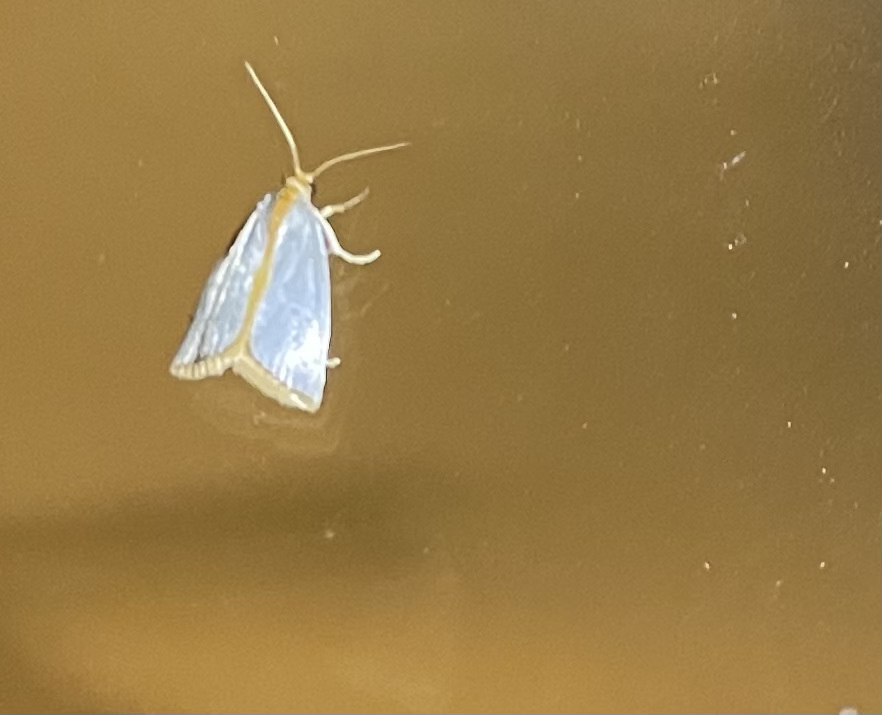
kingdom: Animalia
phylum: Arthropoda
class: Insecta
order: Lepidoptera
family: Crambidae
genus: Argyria
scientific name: Argyria
